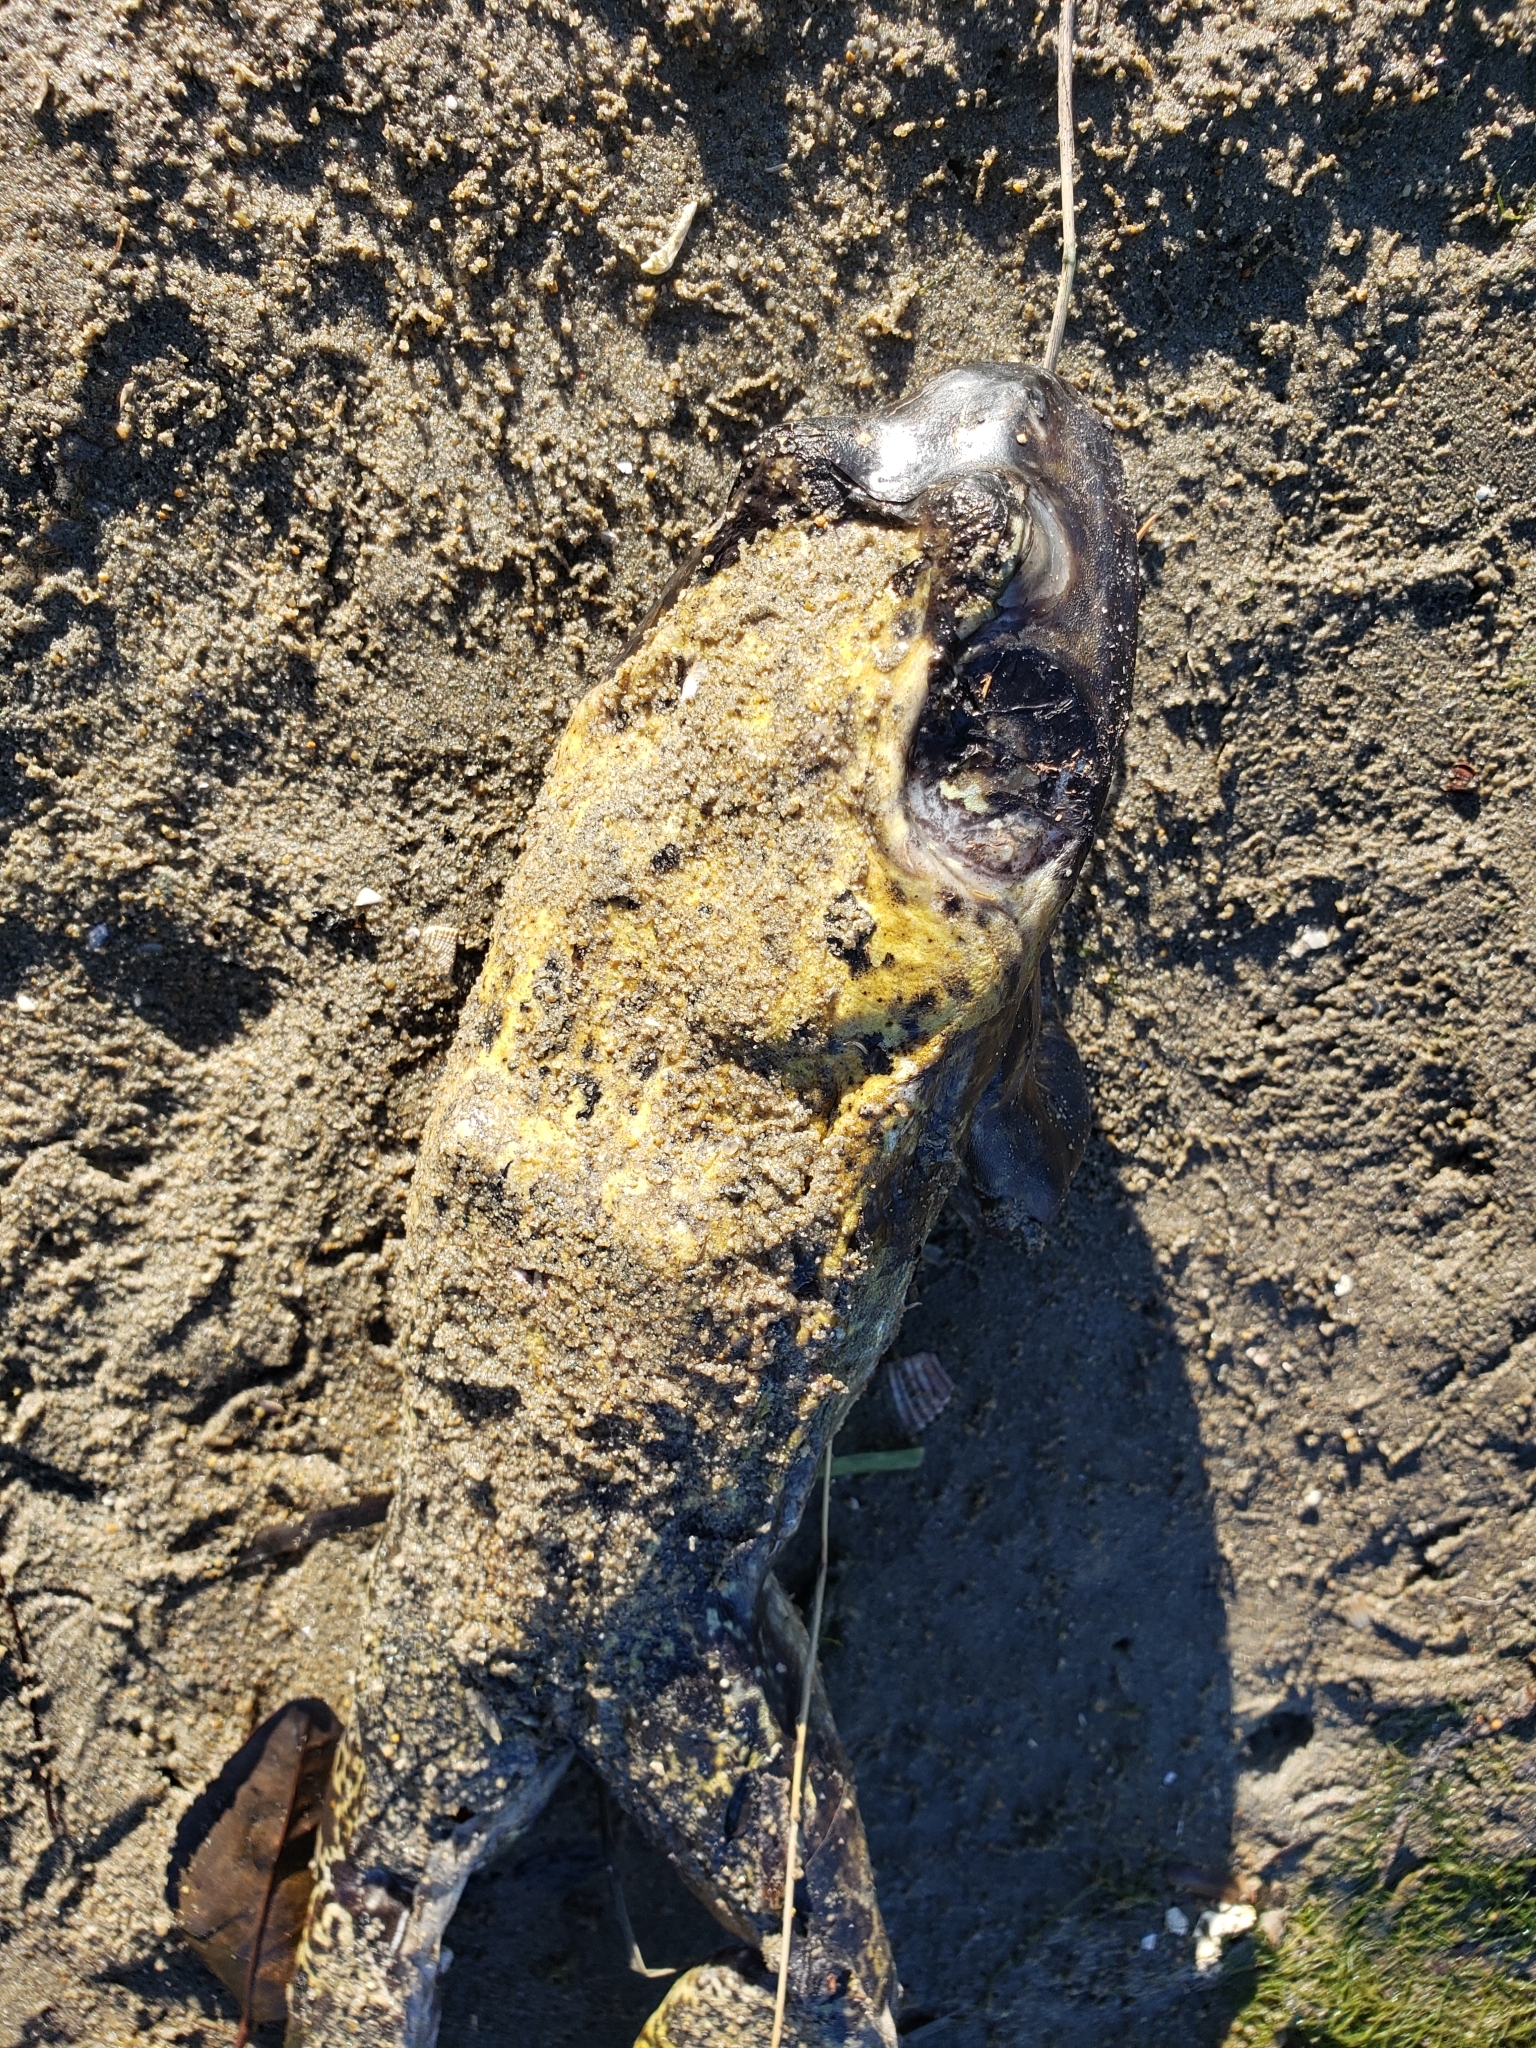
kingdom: Animalia
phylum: Chordata
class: Amphibia
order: Anura
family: Ranidae
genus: Lithobates
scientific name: Lithobates catesbeianus
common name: American bullfrog
